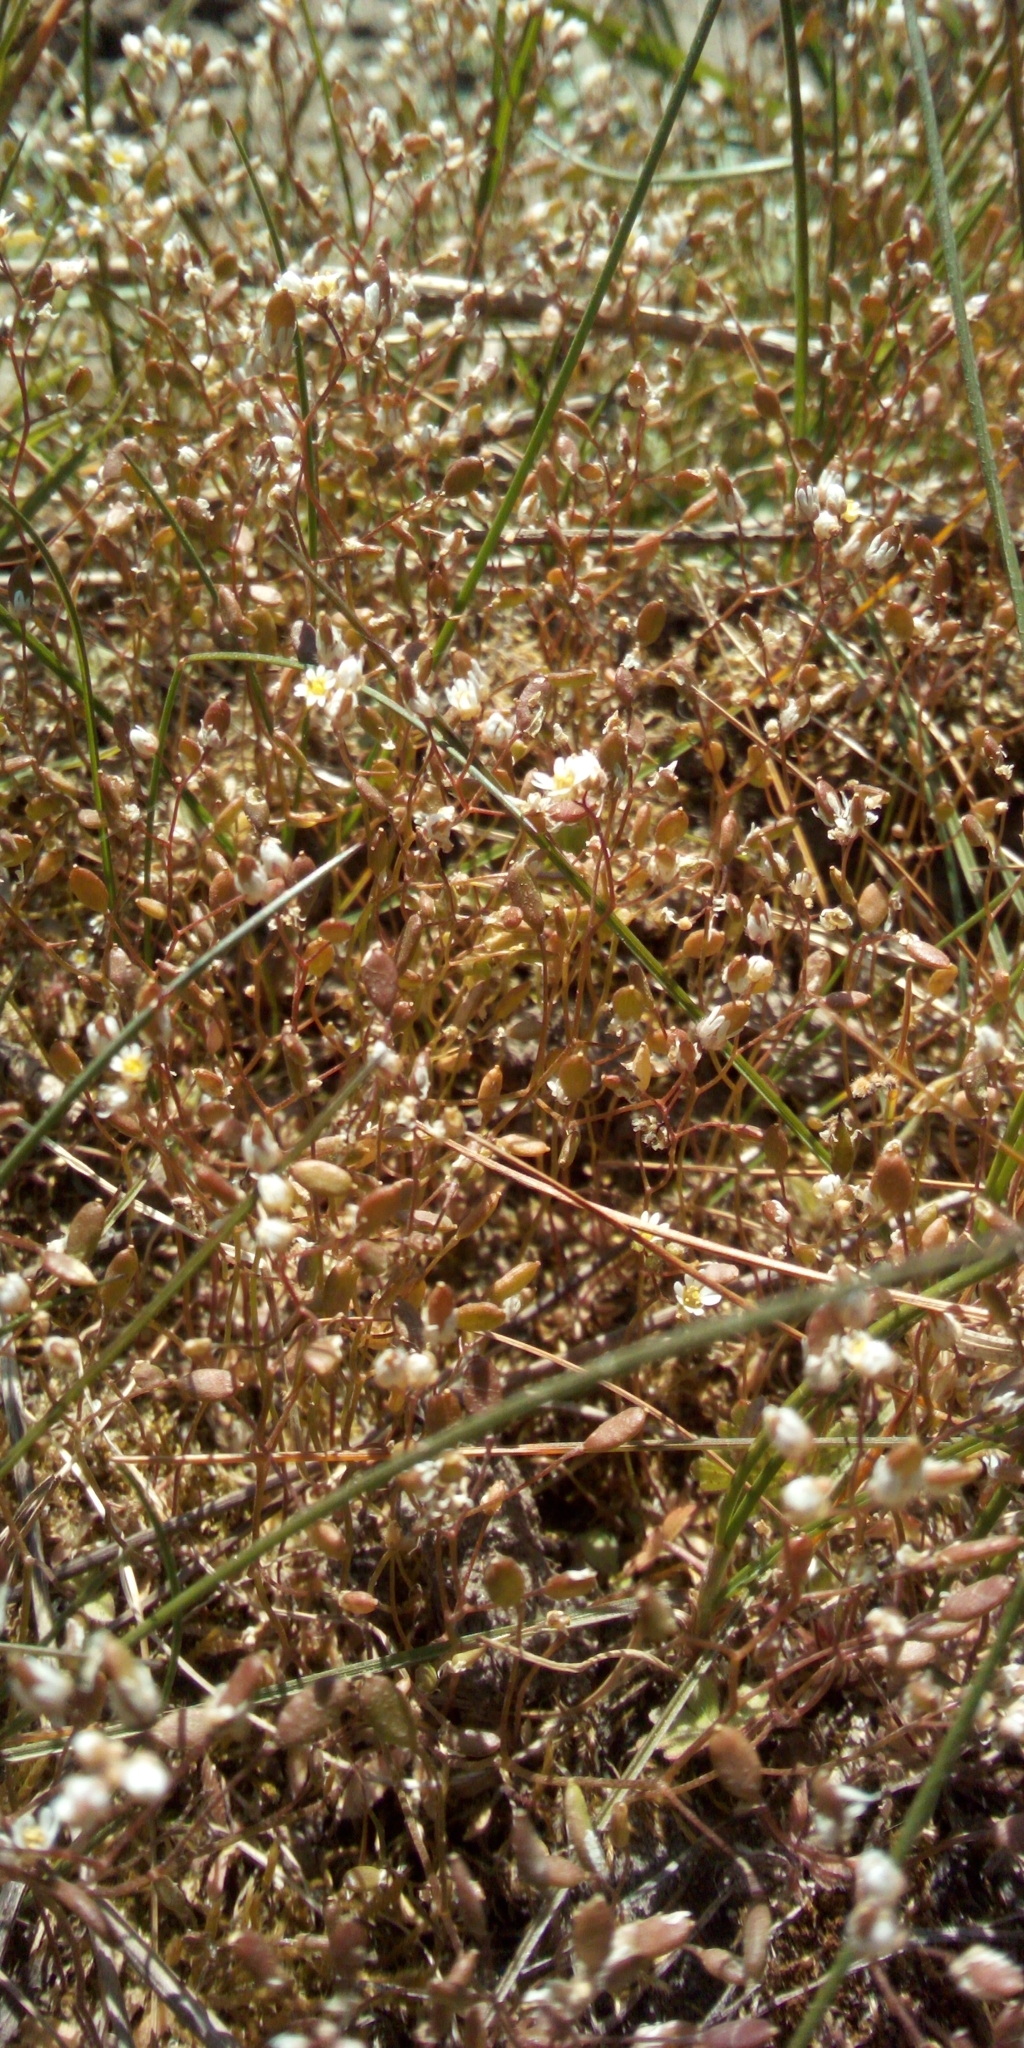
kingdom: Plantae
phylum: Tracheophyta
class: Magnoliopsida
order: Brassicales
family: Brassicaceae
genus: Draba
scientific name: Draba verna
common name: Spring draba
